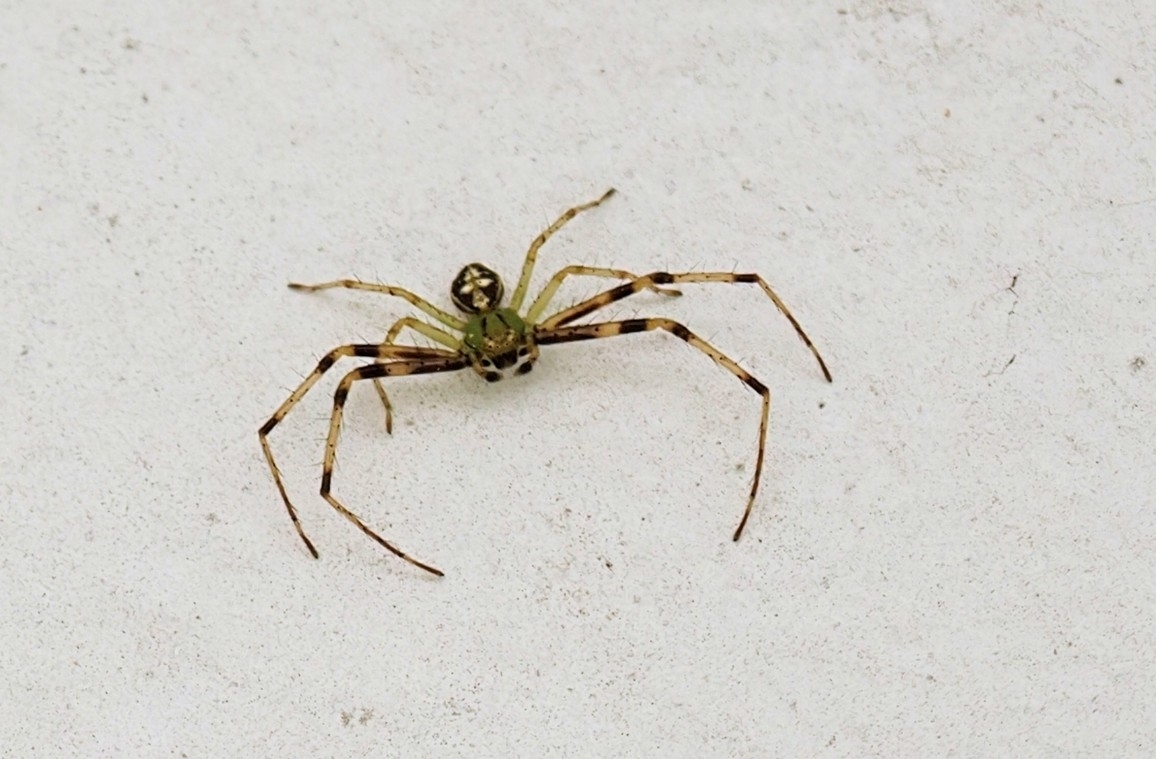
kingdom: Animalia
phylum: Arthropoda
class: Arachnida
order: Araneae
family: Thomisidae
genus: Diaea
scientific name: Diaea livens
